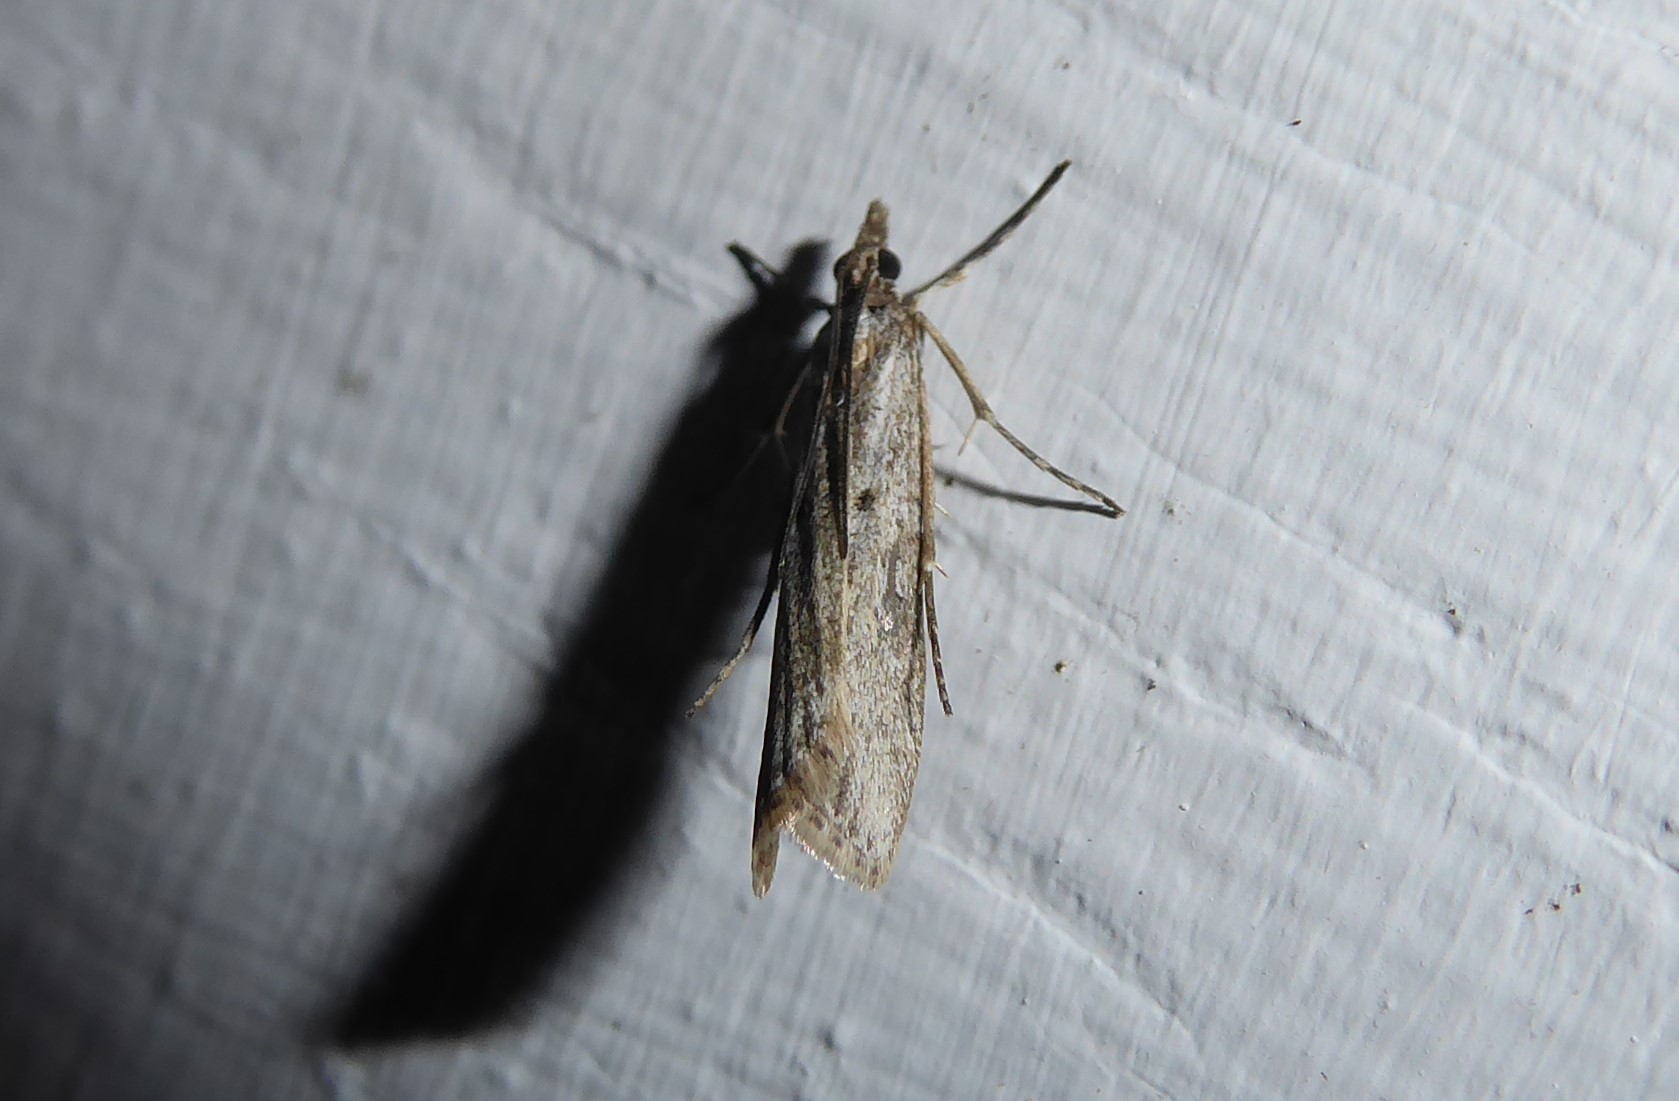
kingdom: Animalia
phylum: Arthropoda
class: Insecta
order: Lepidoptera
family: Crambidae
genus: Eudonia
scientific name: Eudonia leptalea
